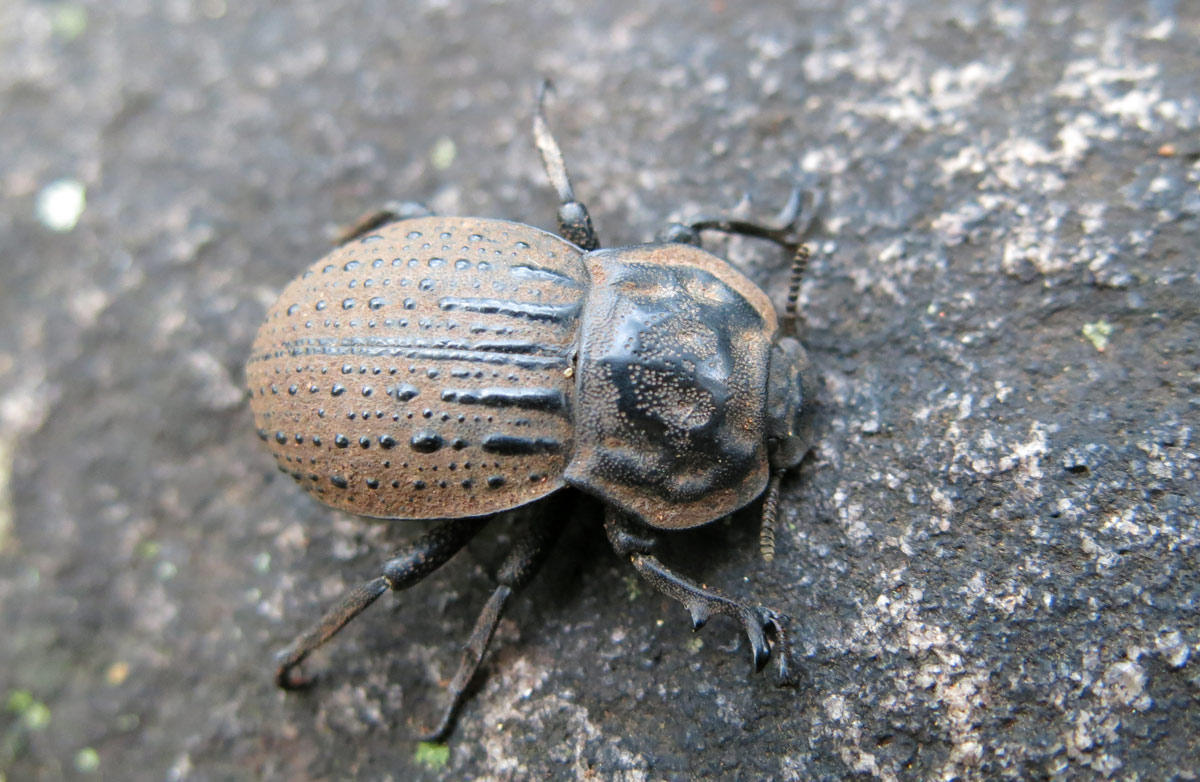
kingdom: Animalia
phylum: Arthropoda
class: Insecta
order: Coleoptera
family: Tenebrionidae
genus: Anomalipus
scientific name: Anomalipus
